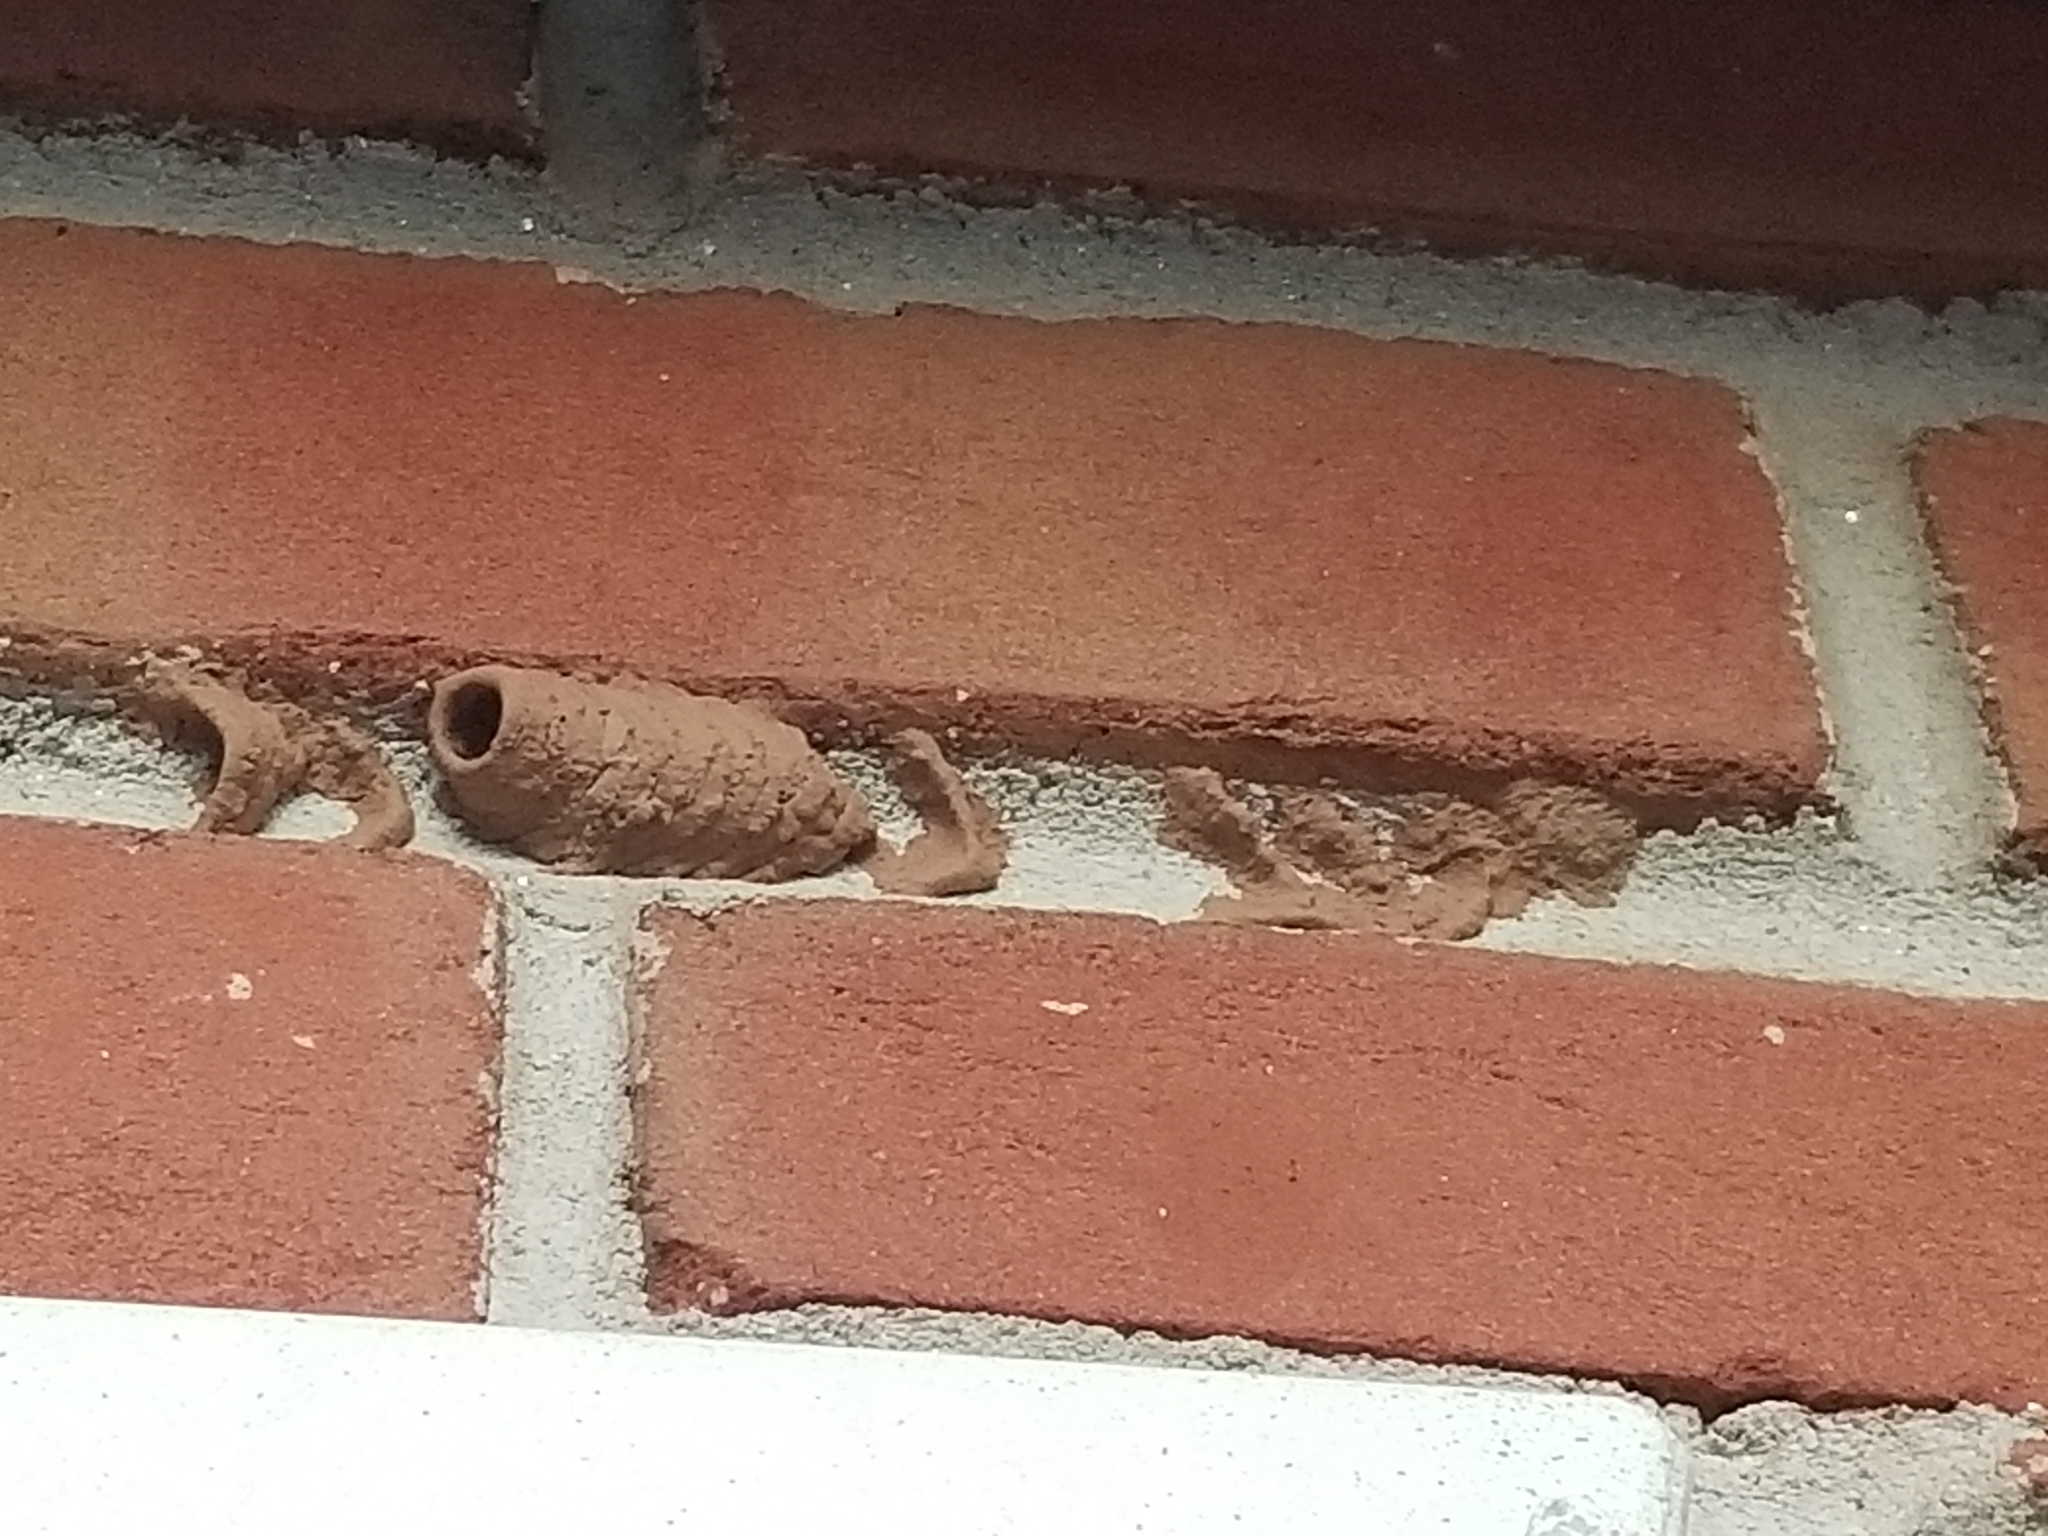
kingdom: Animalia
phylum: Arthropoda
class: Insecta
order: Hymenoptera
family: Sphecidae
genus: Sceliphron
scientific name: Sceliphron caementarium
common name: Mud dauber
